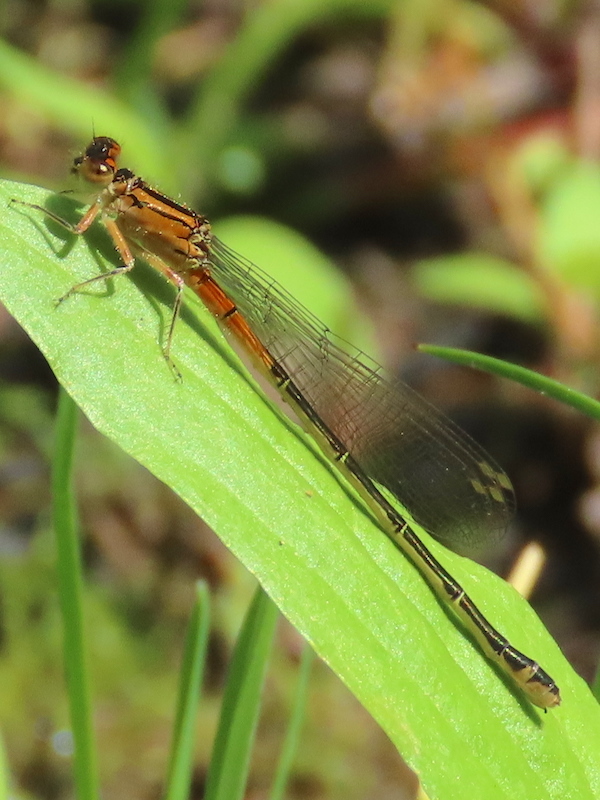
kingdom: Animalia
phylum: Arthropoda
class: Insecta
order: Odonata
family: Coenagrionidae
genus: Ischnura
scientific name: Ischnura verticalis
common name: Eastern forktail
